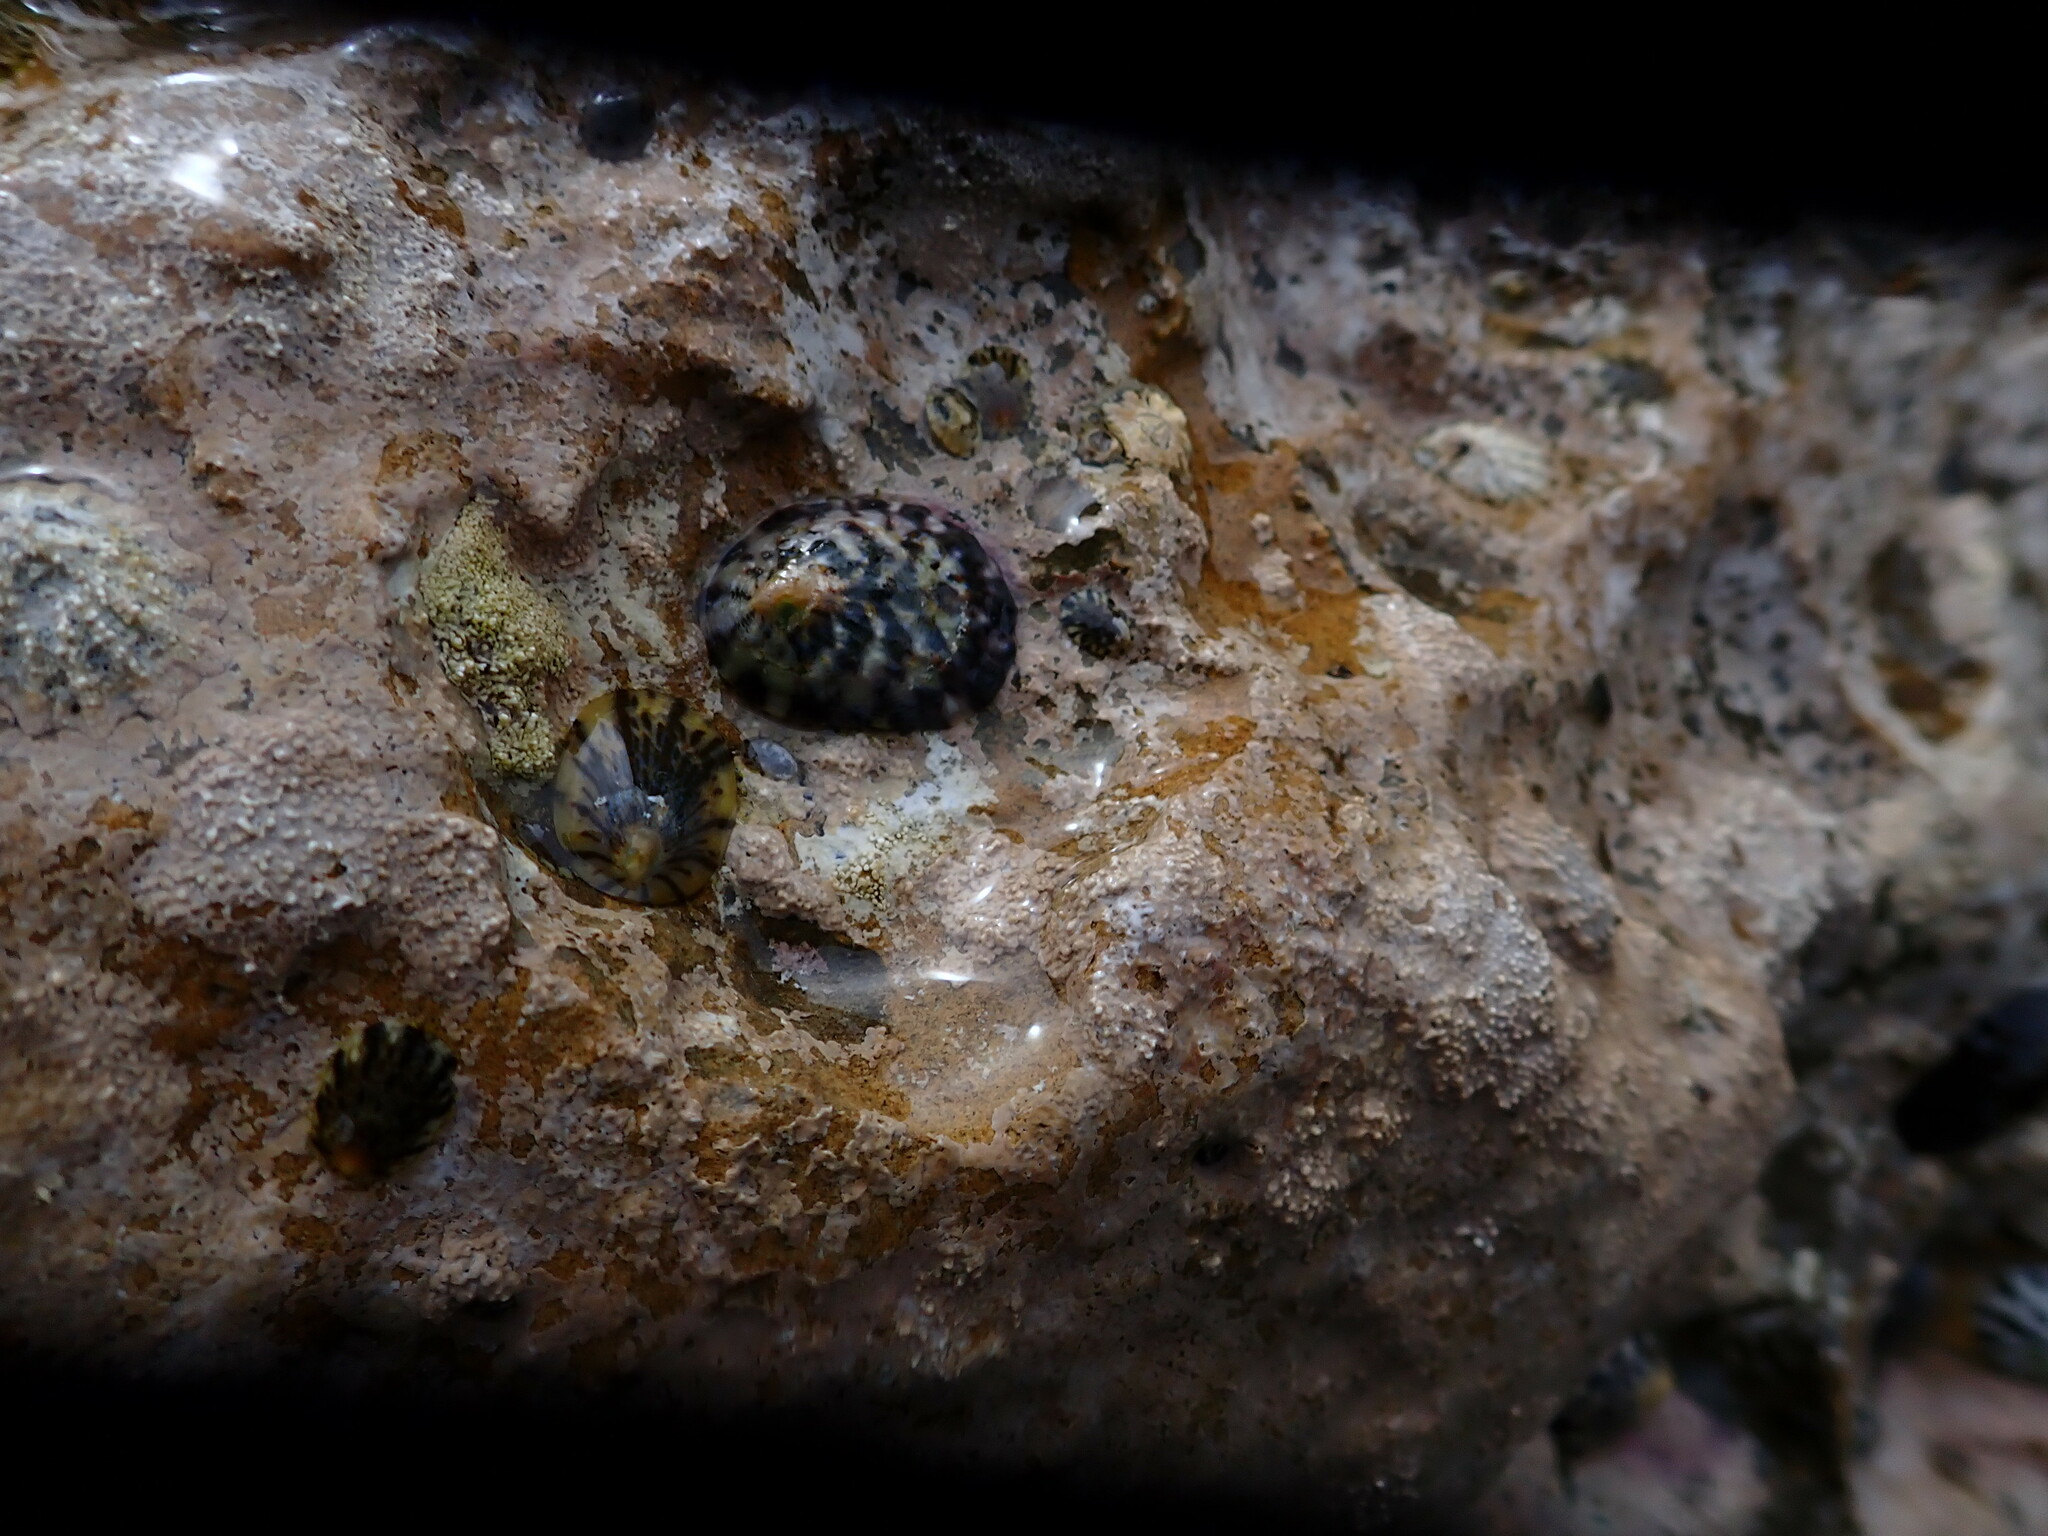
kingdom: Animalia
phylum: Mollusca
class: Gastropoda
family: Nacellidae
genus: Cellana
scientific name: Cellana radians
